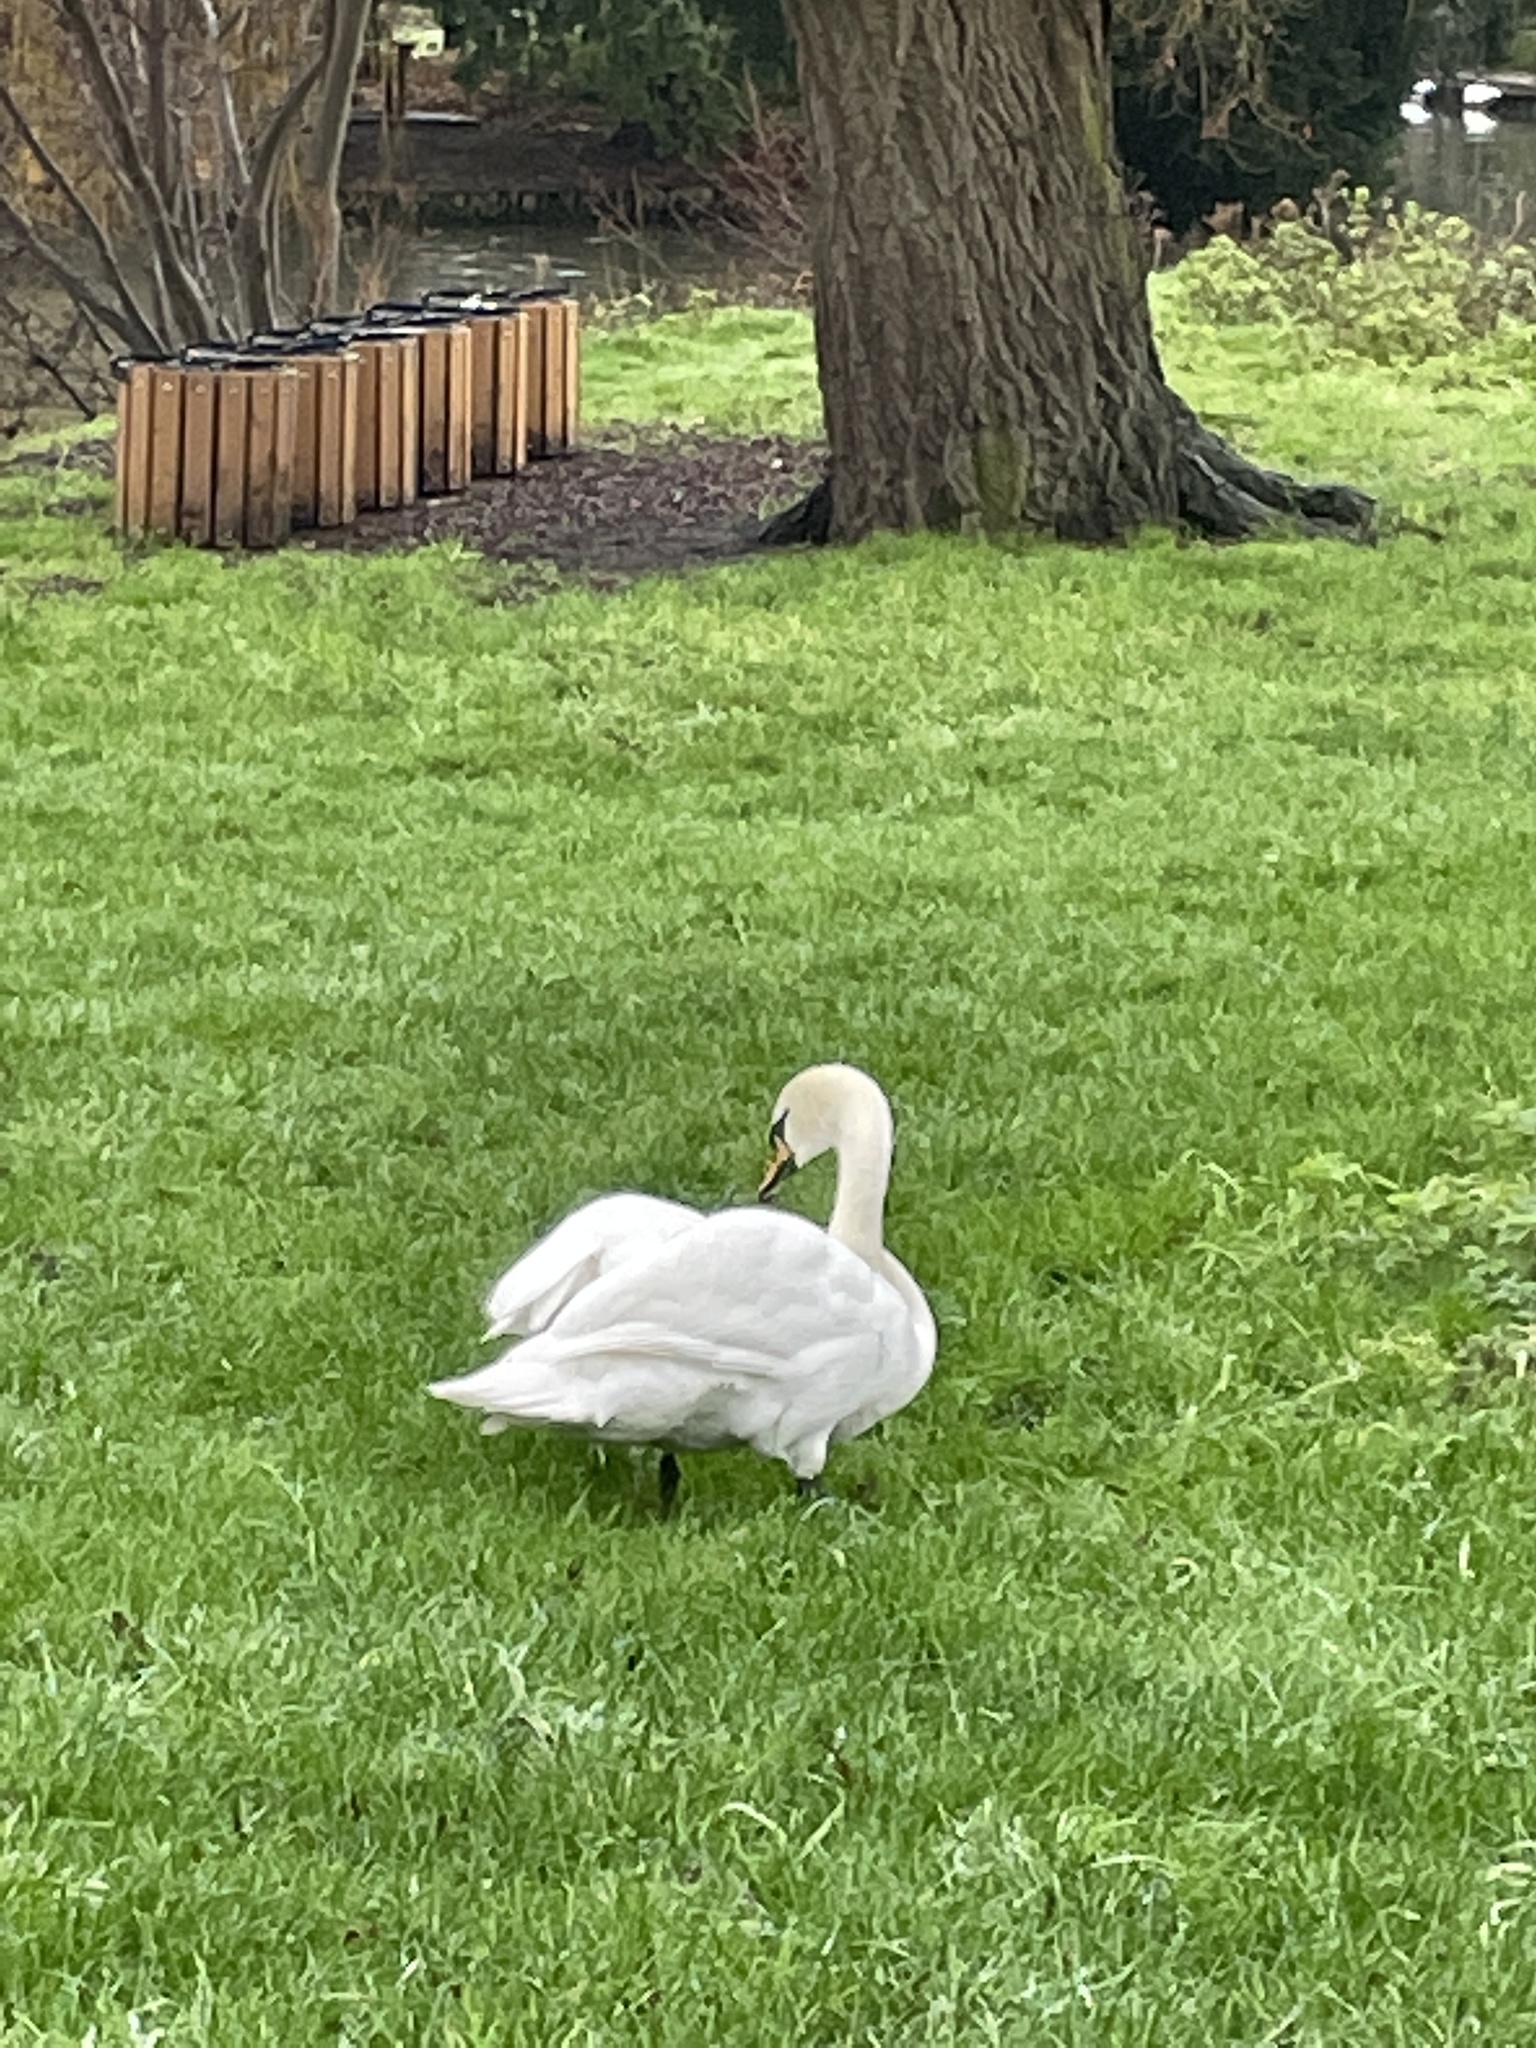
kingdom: Animalia
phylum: Chordata
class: Aves
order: Anseriformes
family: Anatidae
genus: Cygnus
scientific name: Cygnus olor
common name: Mute swan
